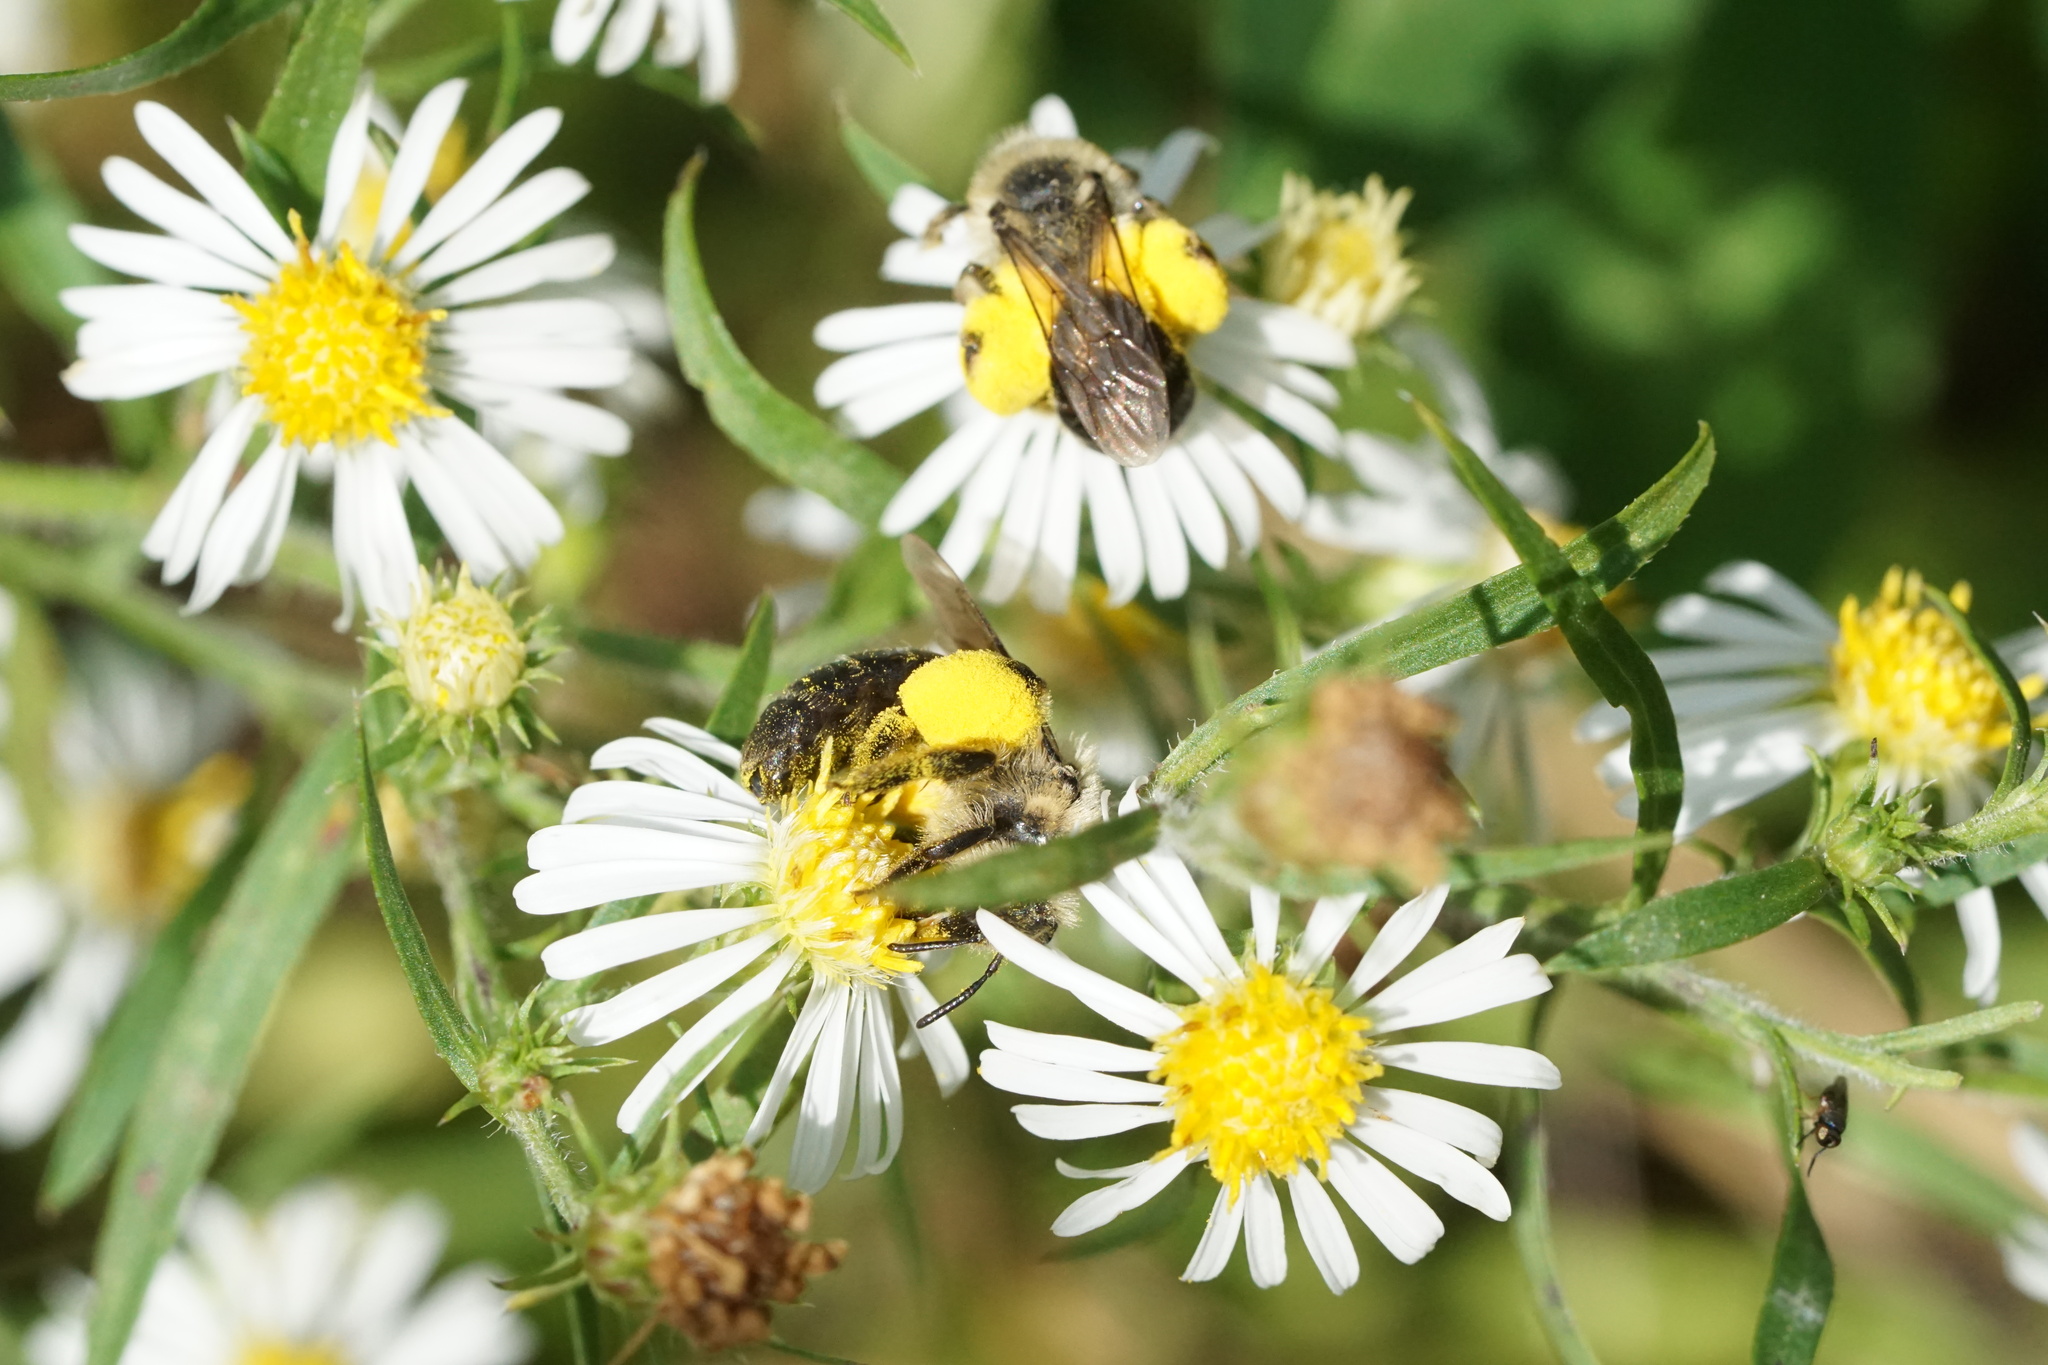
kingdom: Animalia
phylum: Arthropoda
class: Insecta
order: Hymenoptera
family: Andrenidae
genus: Andrena
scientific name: Andrena asteris
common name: Aster mining bee
